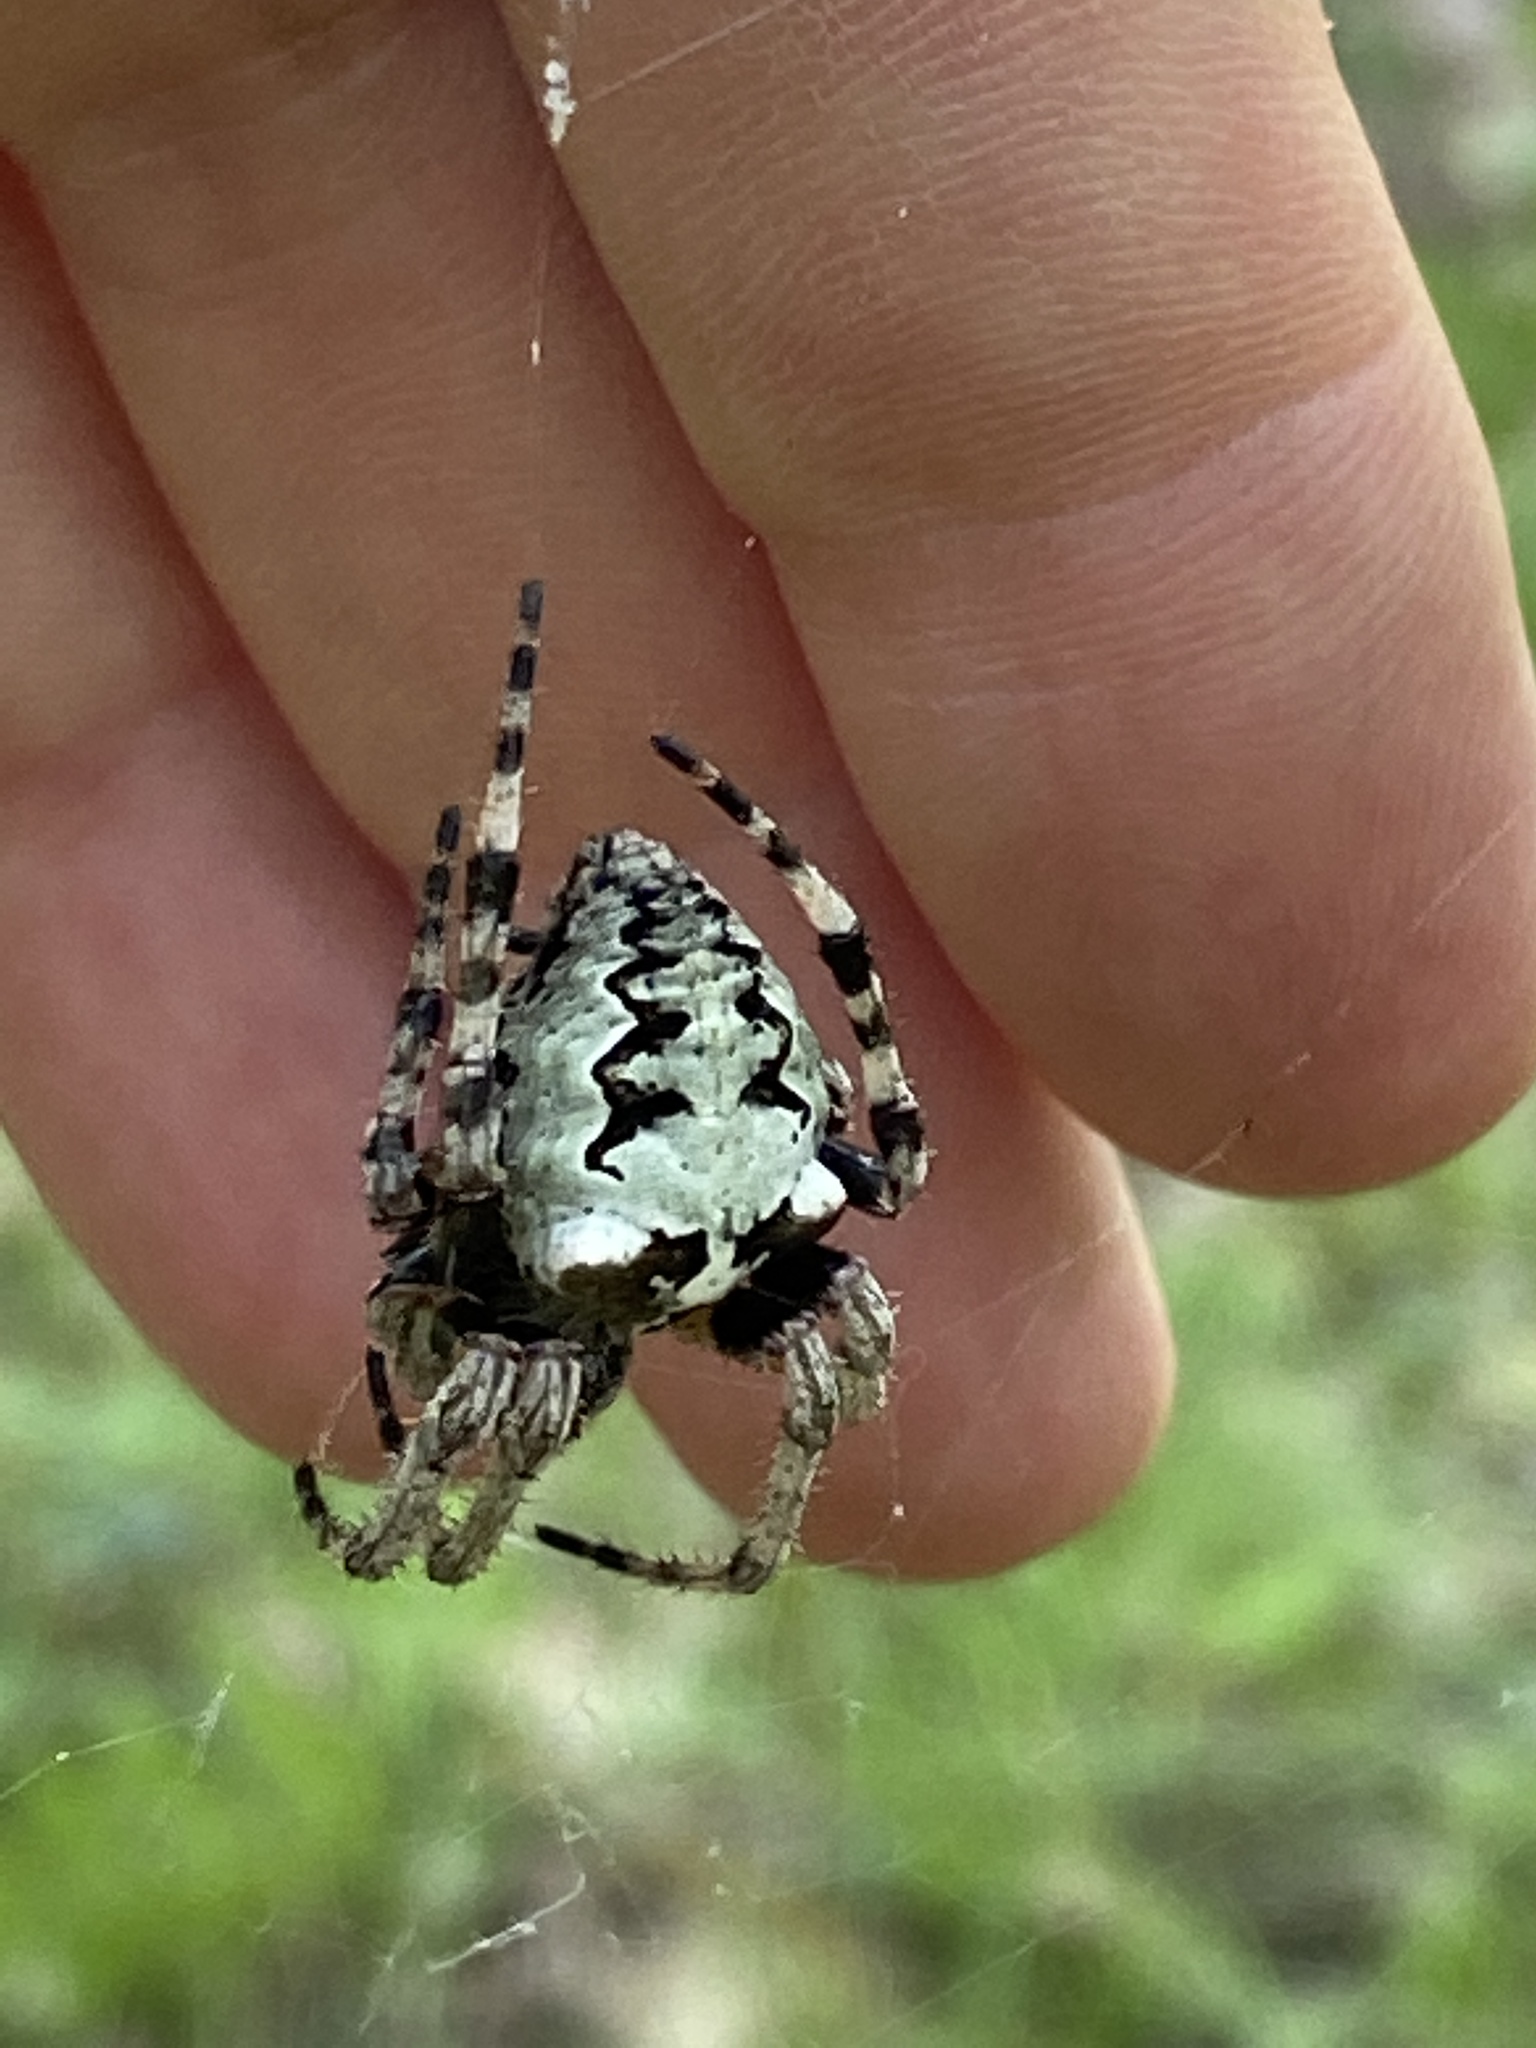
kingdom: Animalia
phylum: Arthropoda
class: Arachnida
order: Araneae
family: Araneidae
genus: Araneus
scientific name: Araneus bicentenarius
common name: Giant lichen orbweaver
